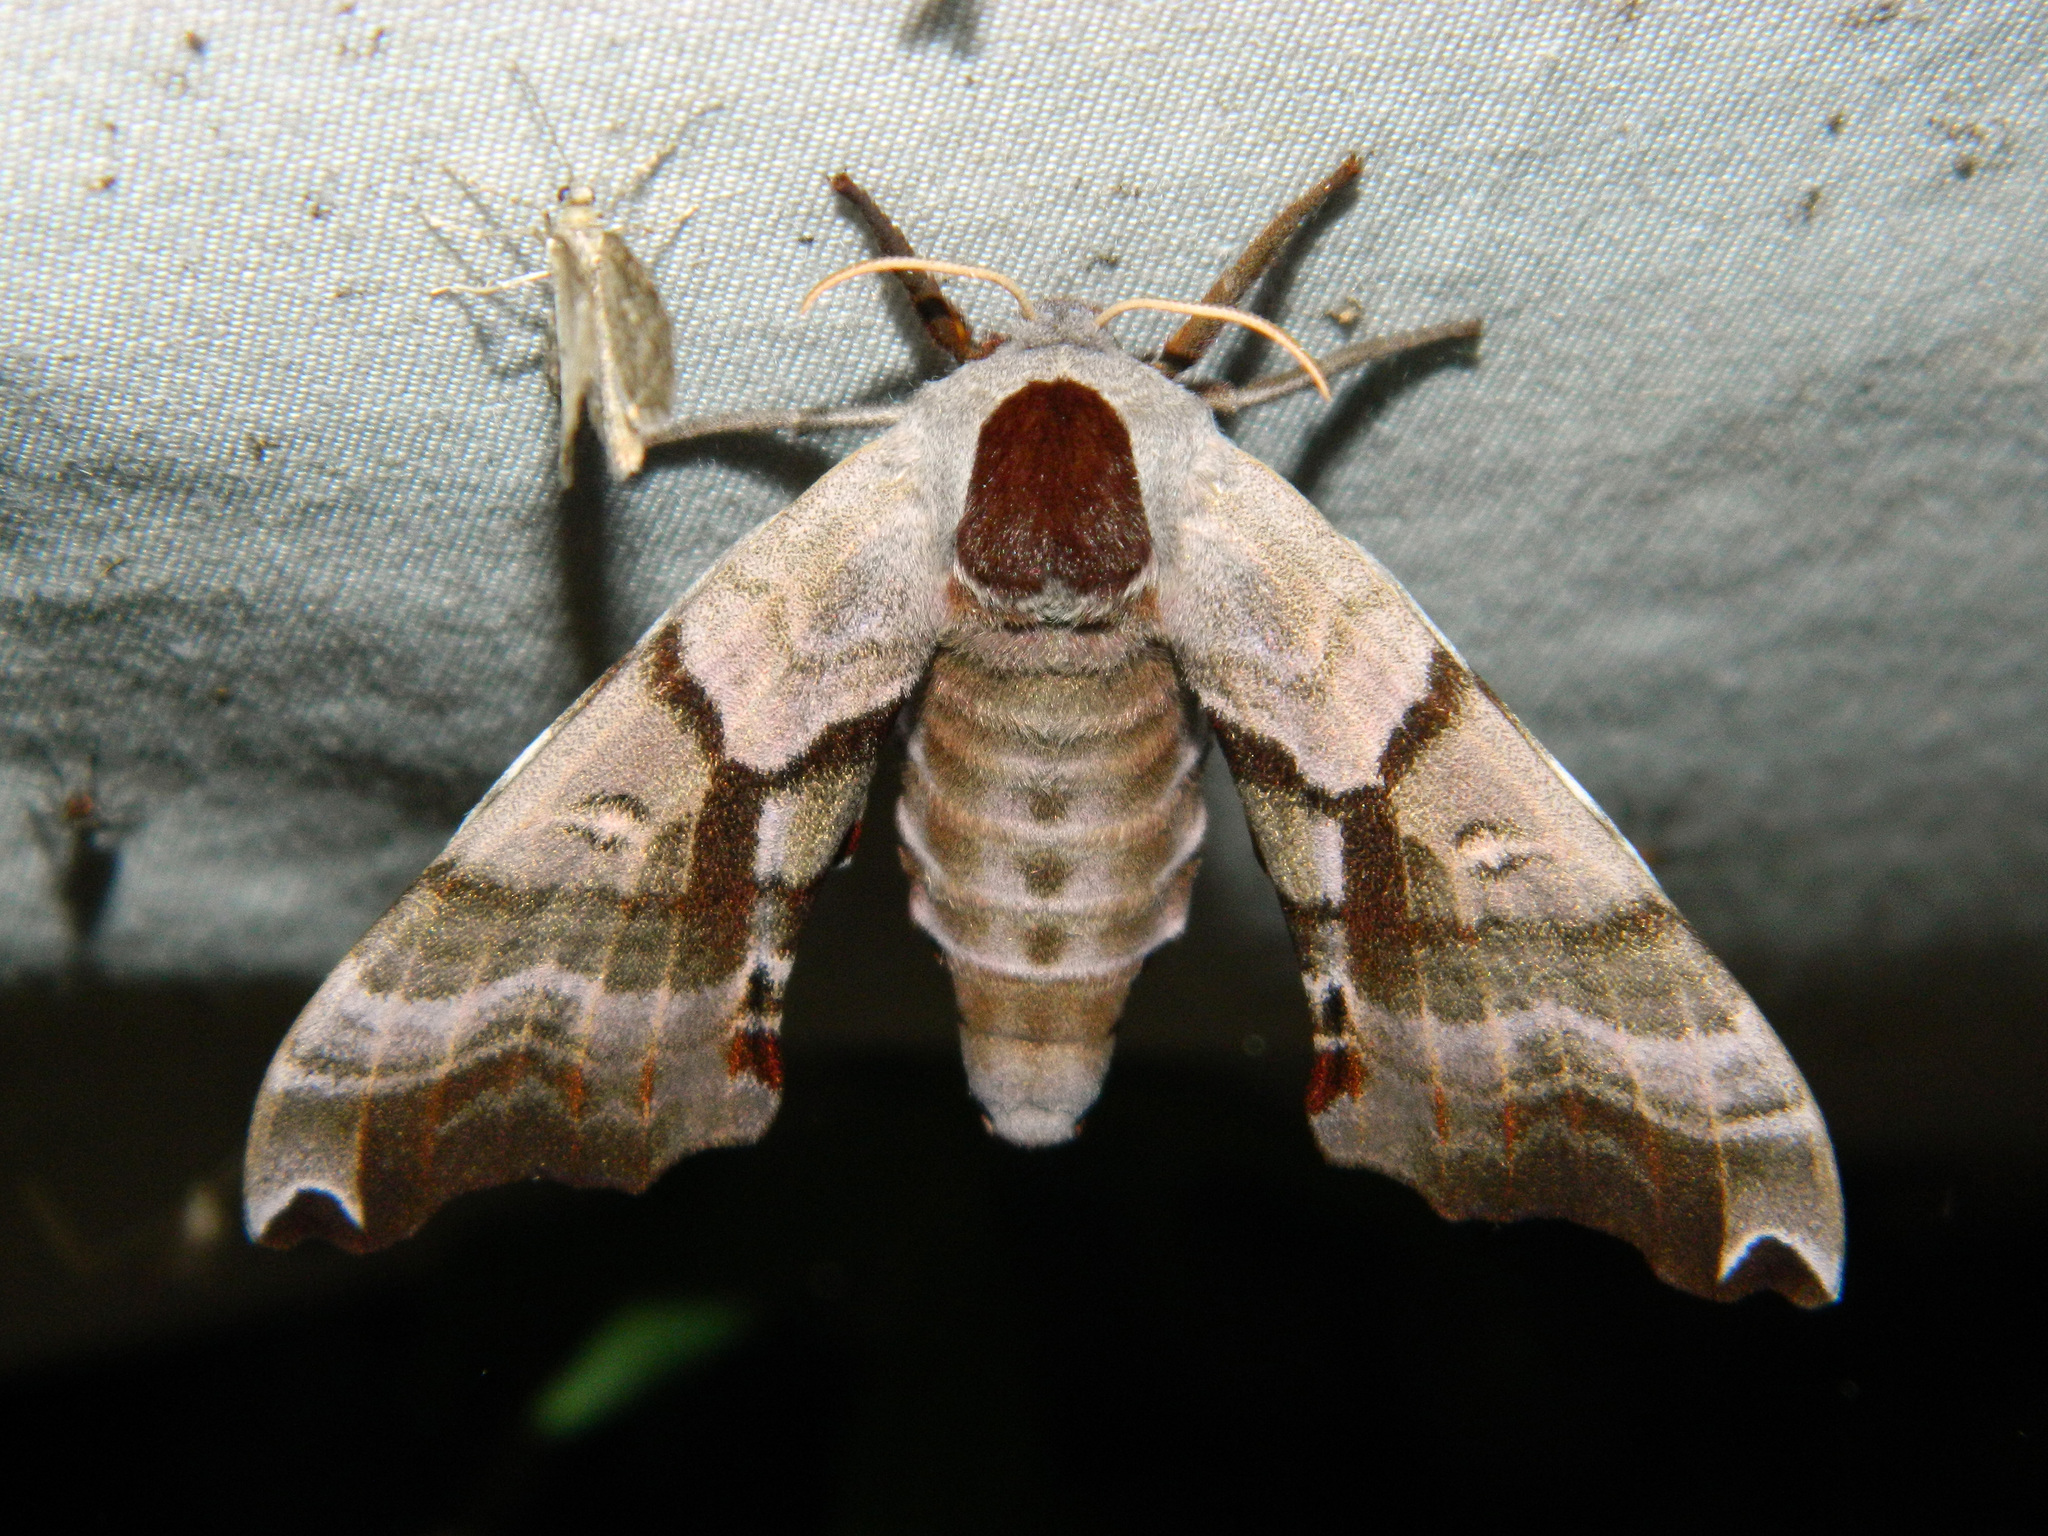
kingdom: Animalia
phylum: Arthropoda
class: Insecta
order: Lepidoptera
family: Sphingidae
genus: Smerinthus
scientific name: Smerinthus jamaicensis
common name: Twin spotted sphinx
